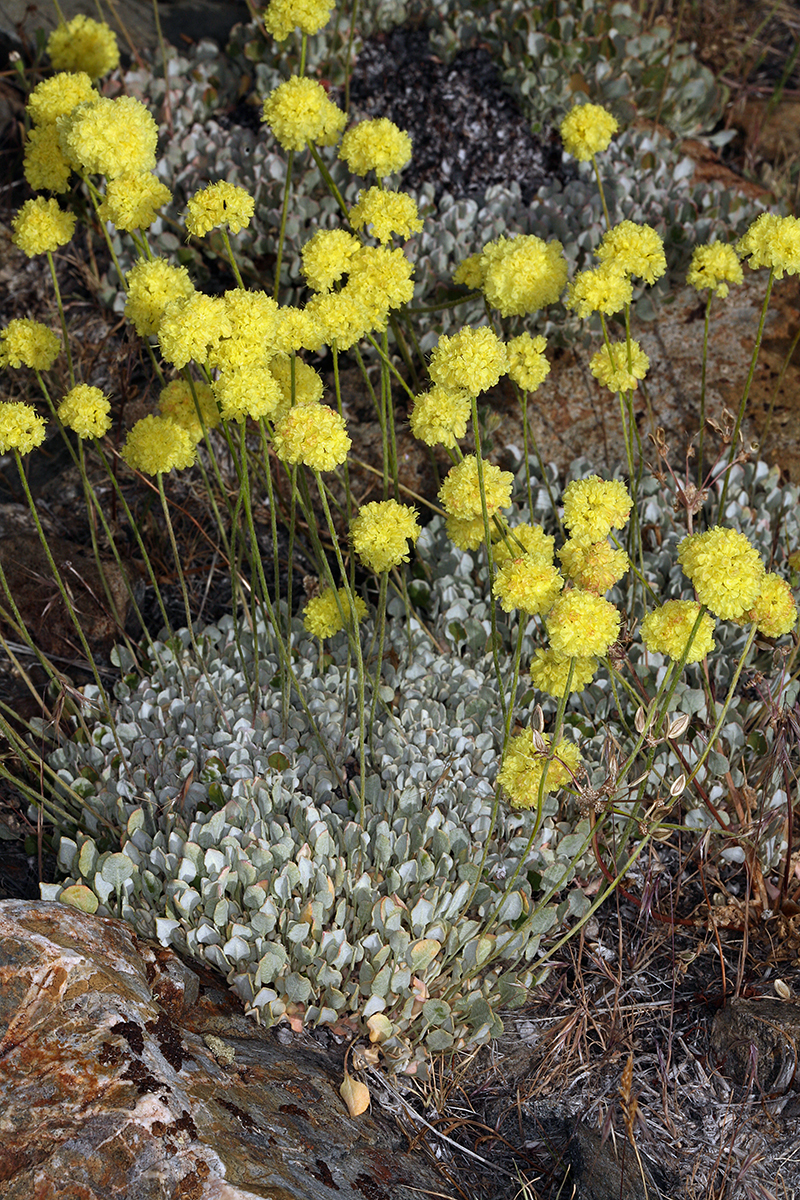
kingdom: Plantae
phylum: Tracheophyta
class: Magnoliopsida
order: Caryophyllales
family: Polygonaceae
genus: Eriogonum
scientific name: Eriogonum ovalifolium
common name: Cushion buckwheat
